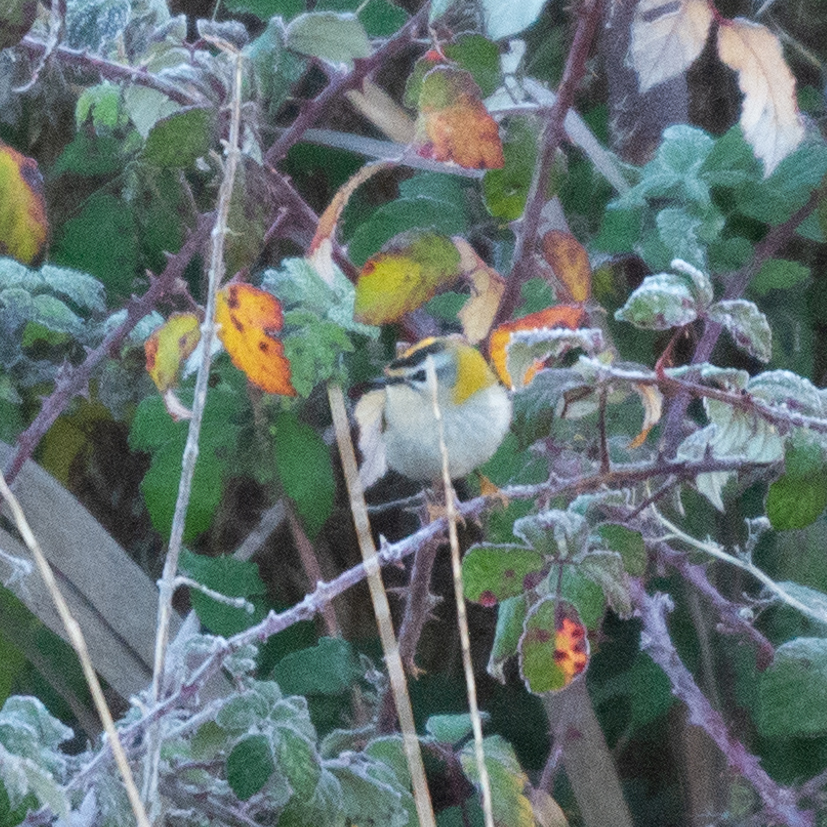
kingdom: Animalia
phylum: Chordata
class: Aves
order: Passeriformes
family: Regulidae
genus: Regulus
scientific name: Regulus ignicapilla
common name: Firecrest
